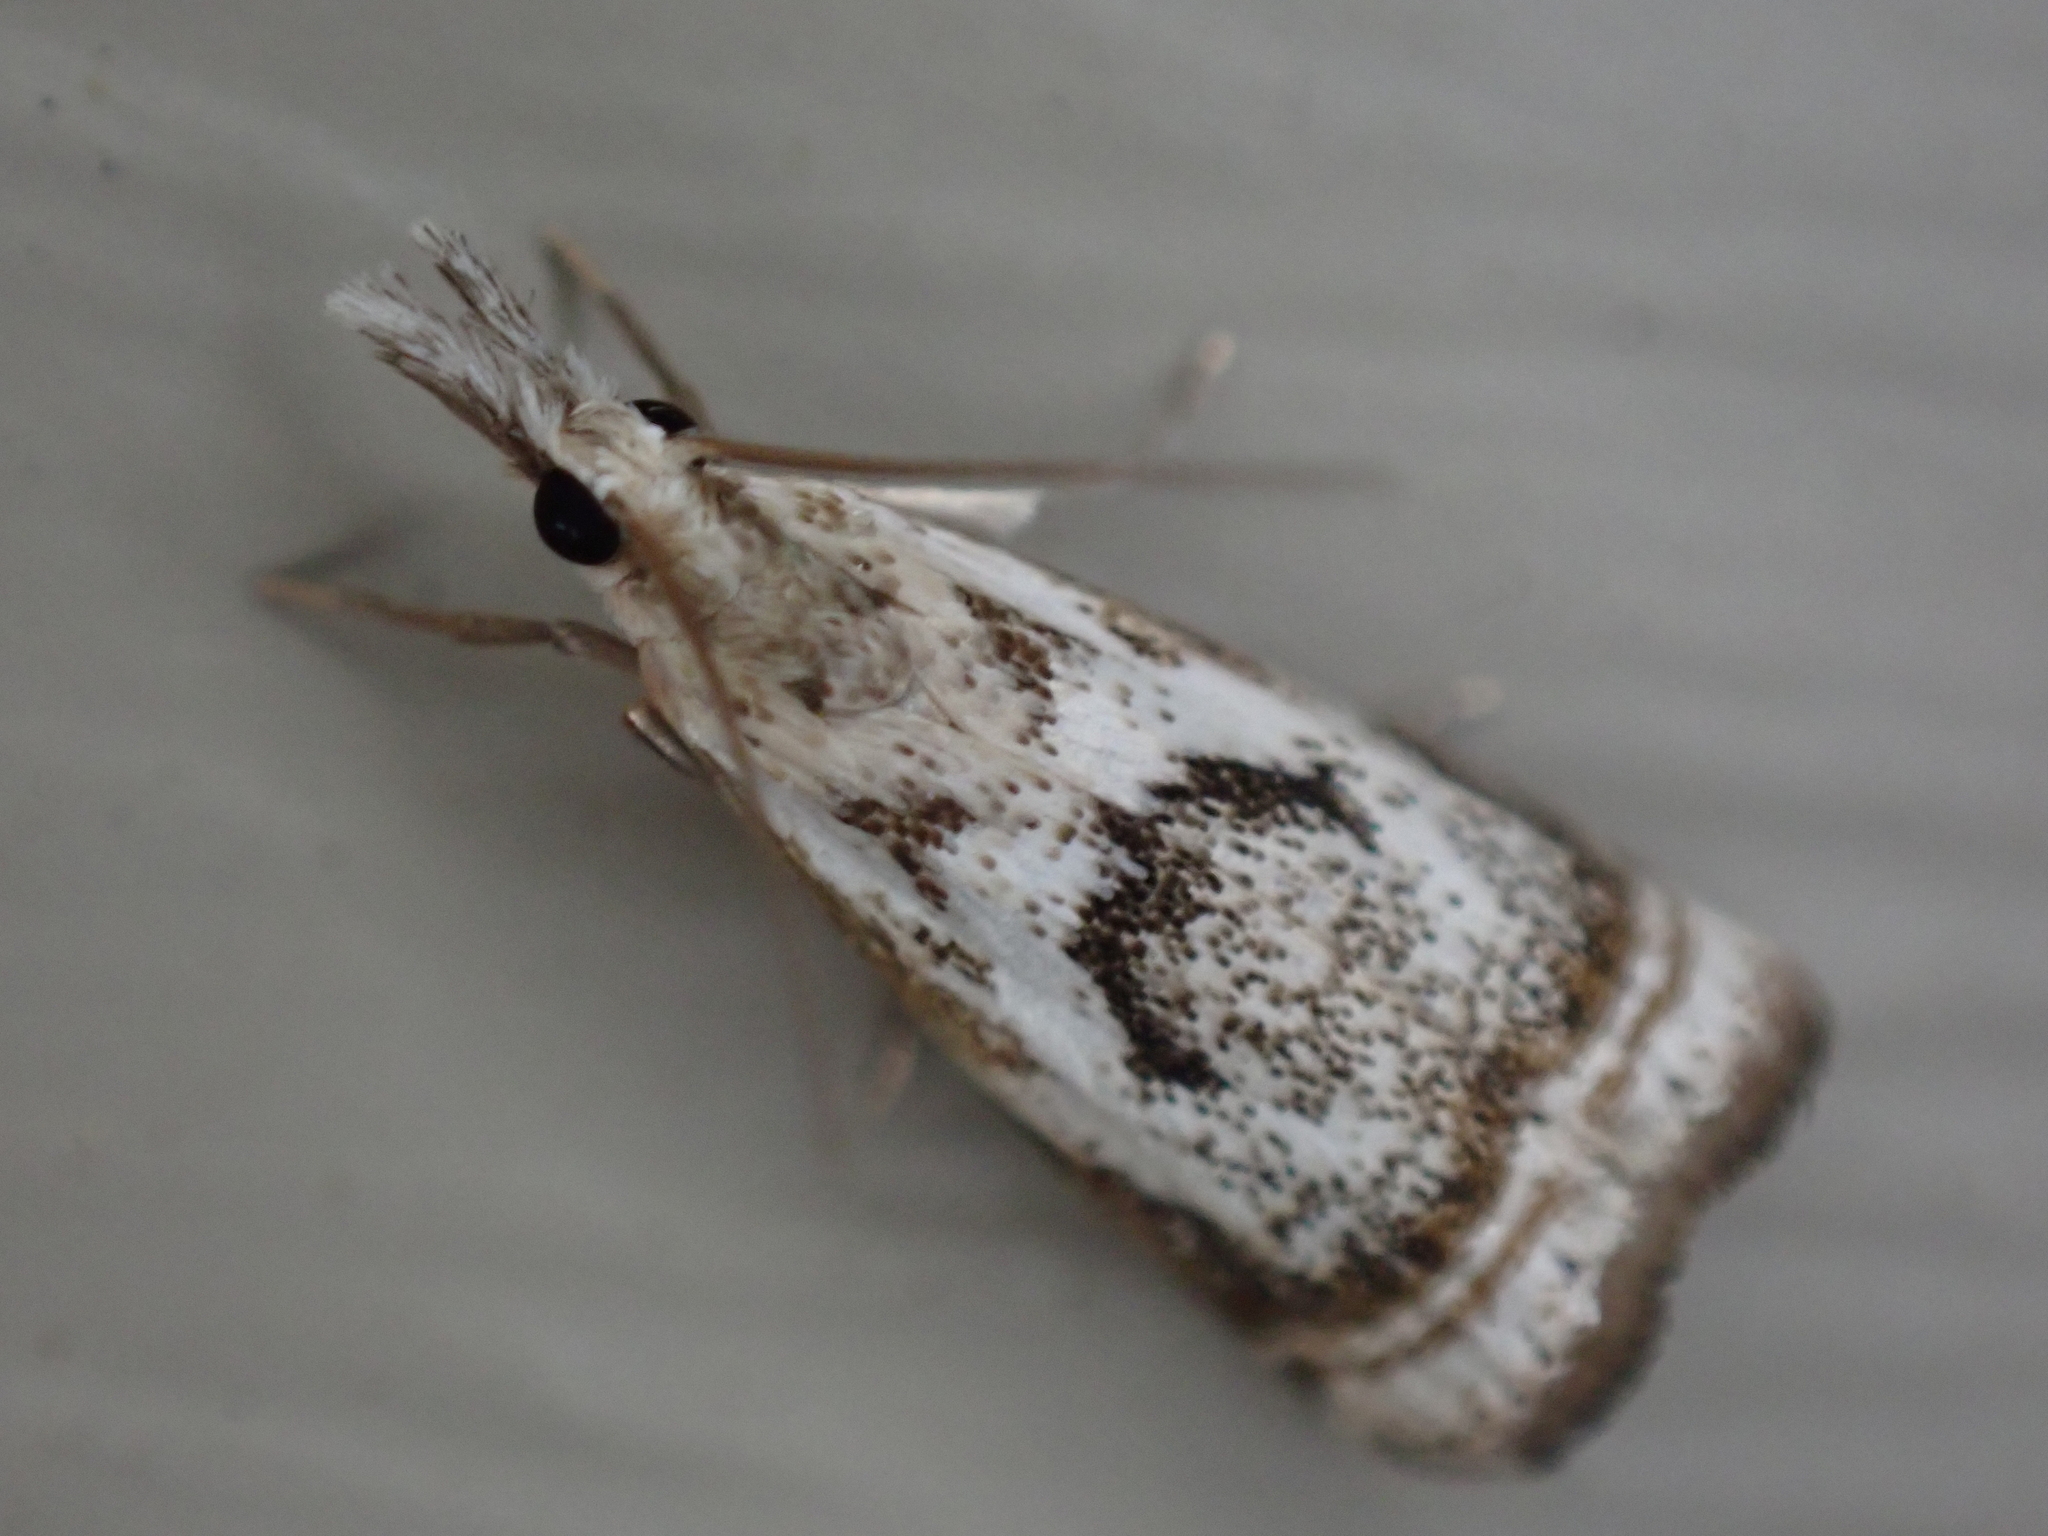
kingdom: Animalia
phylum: Arthropoda
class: Insecta
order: Lepidoptera
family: Crambidae
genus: Microcrambus
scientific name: Microcrambus elegans
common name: Elegant grass-veneer
